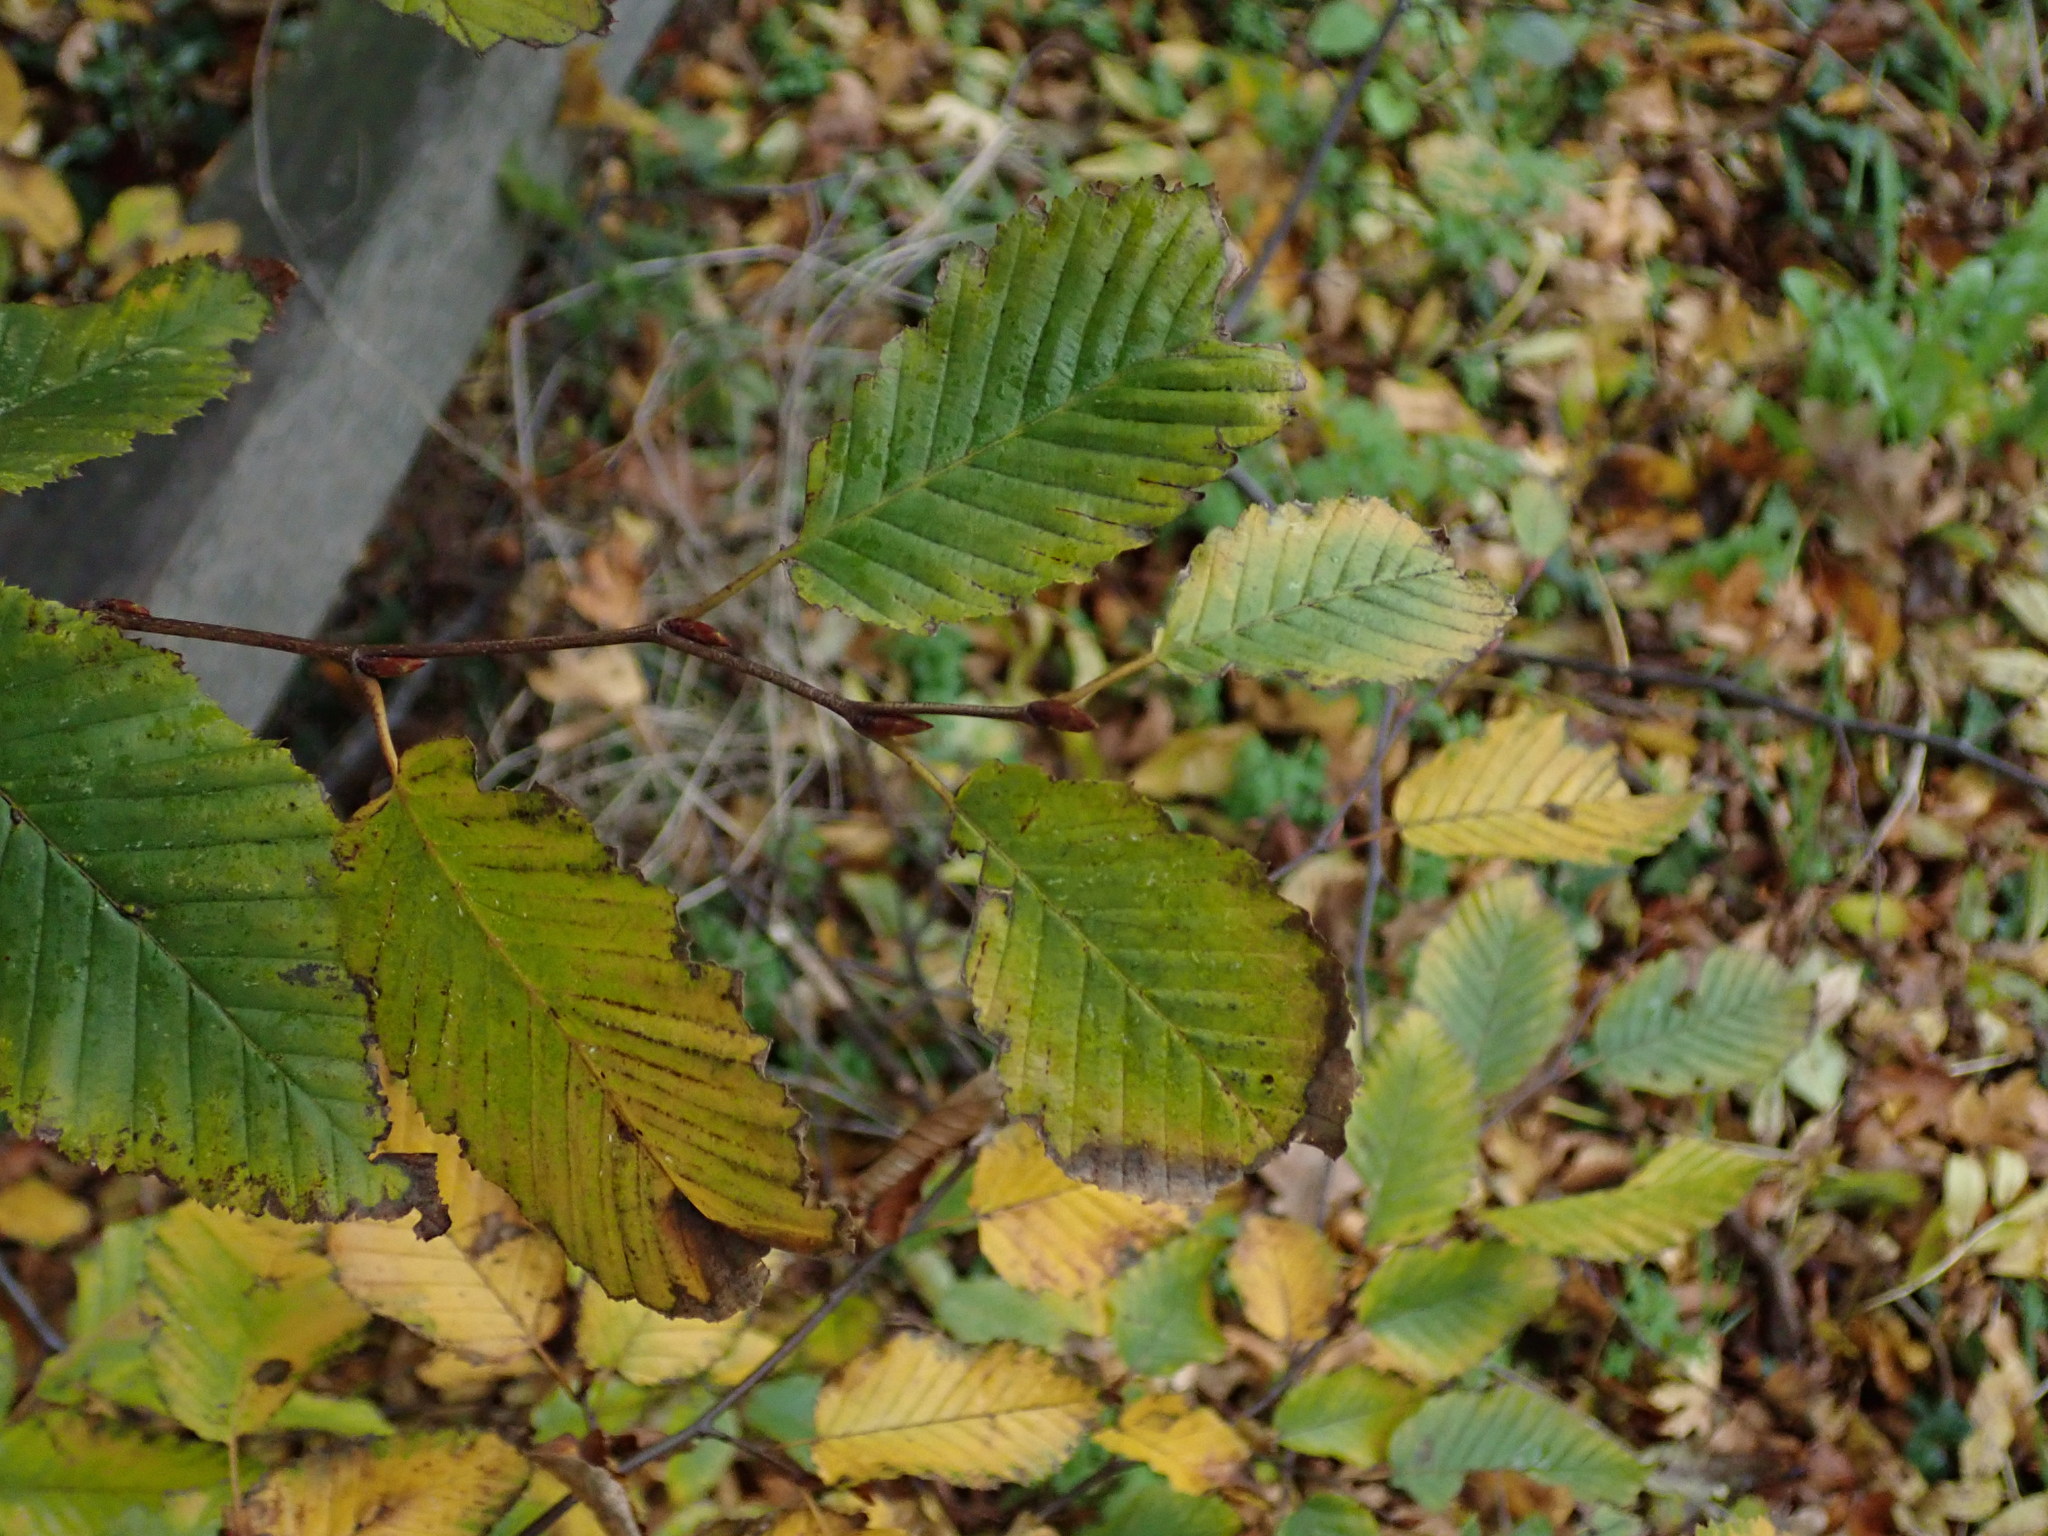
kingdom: Plantae
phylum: Tracheophyta
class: Magnoliopsida
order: Fagales
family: Betulaceae
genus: Carpinus
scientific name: Carpinus betulus
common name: Hornbeam
